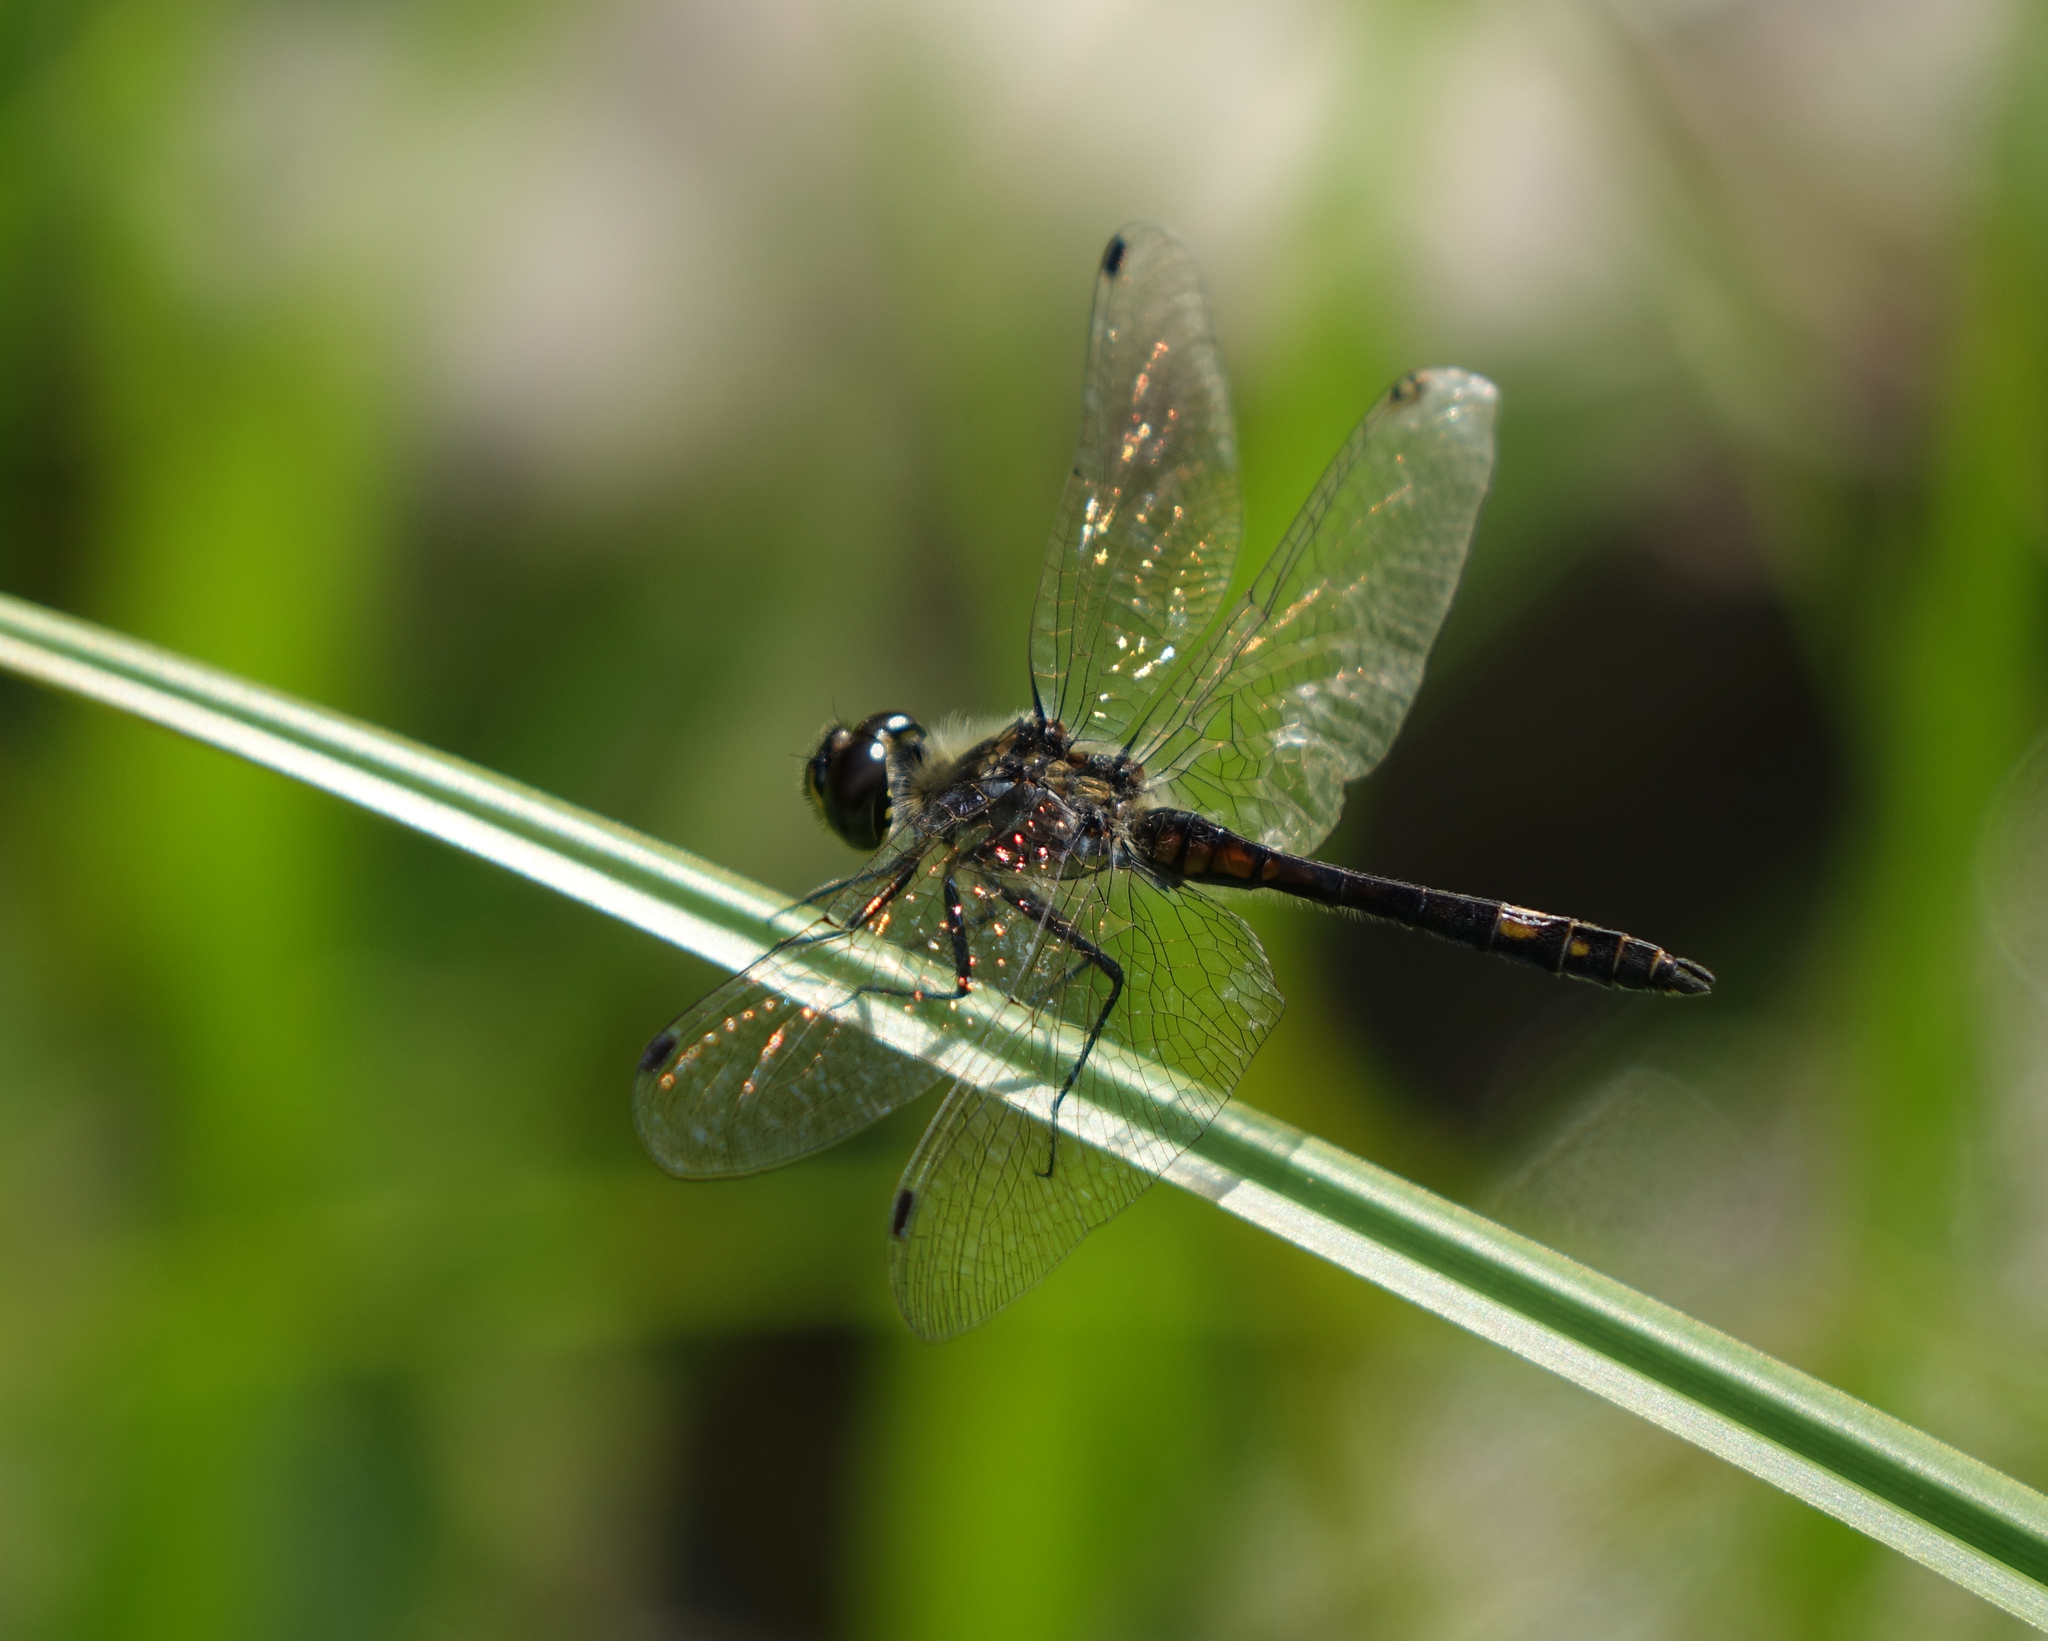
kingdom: Animalia
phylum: Arthropoda
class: Insecta
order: Odonata
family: Libellulidae
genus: Sympetrum
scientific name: Sympetrum danae
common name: Black darter
